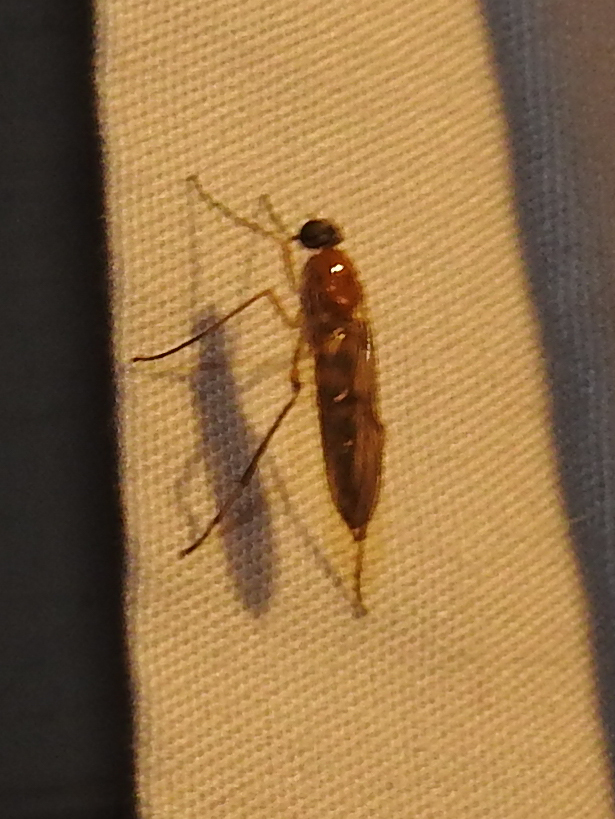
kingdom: Animalia
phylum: Arthropoda
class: Insecta
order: Diptera
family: Xylophagidae
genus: Dialysis
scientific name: Dialysis elongata
